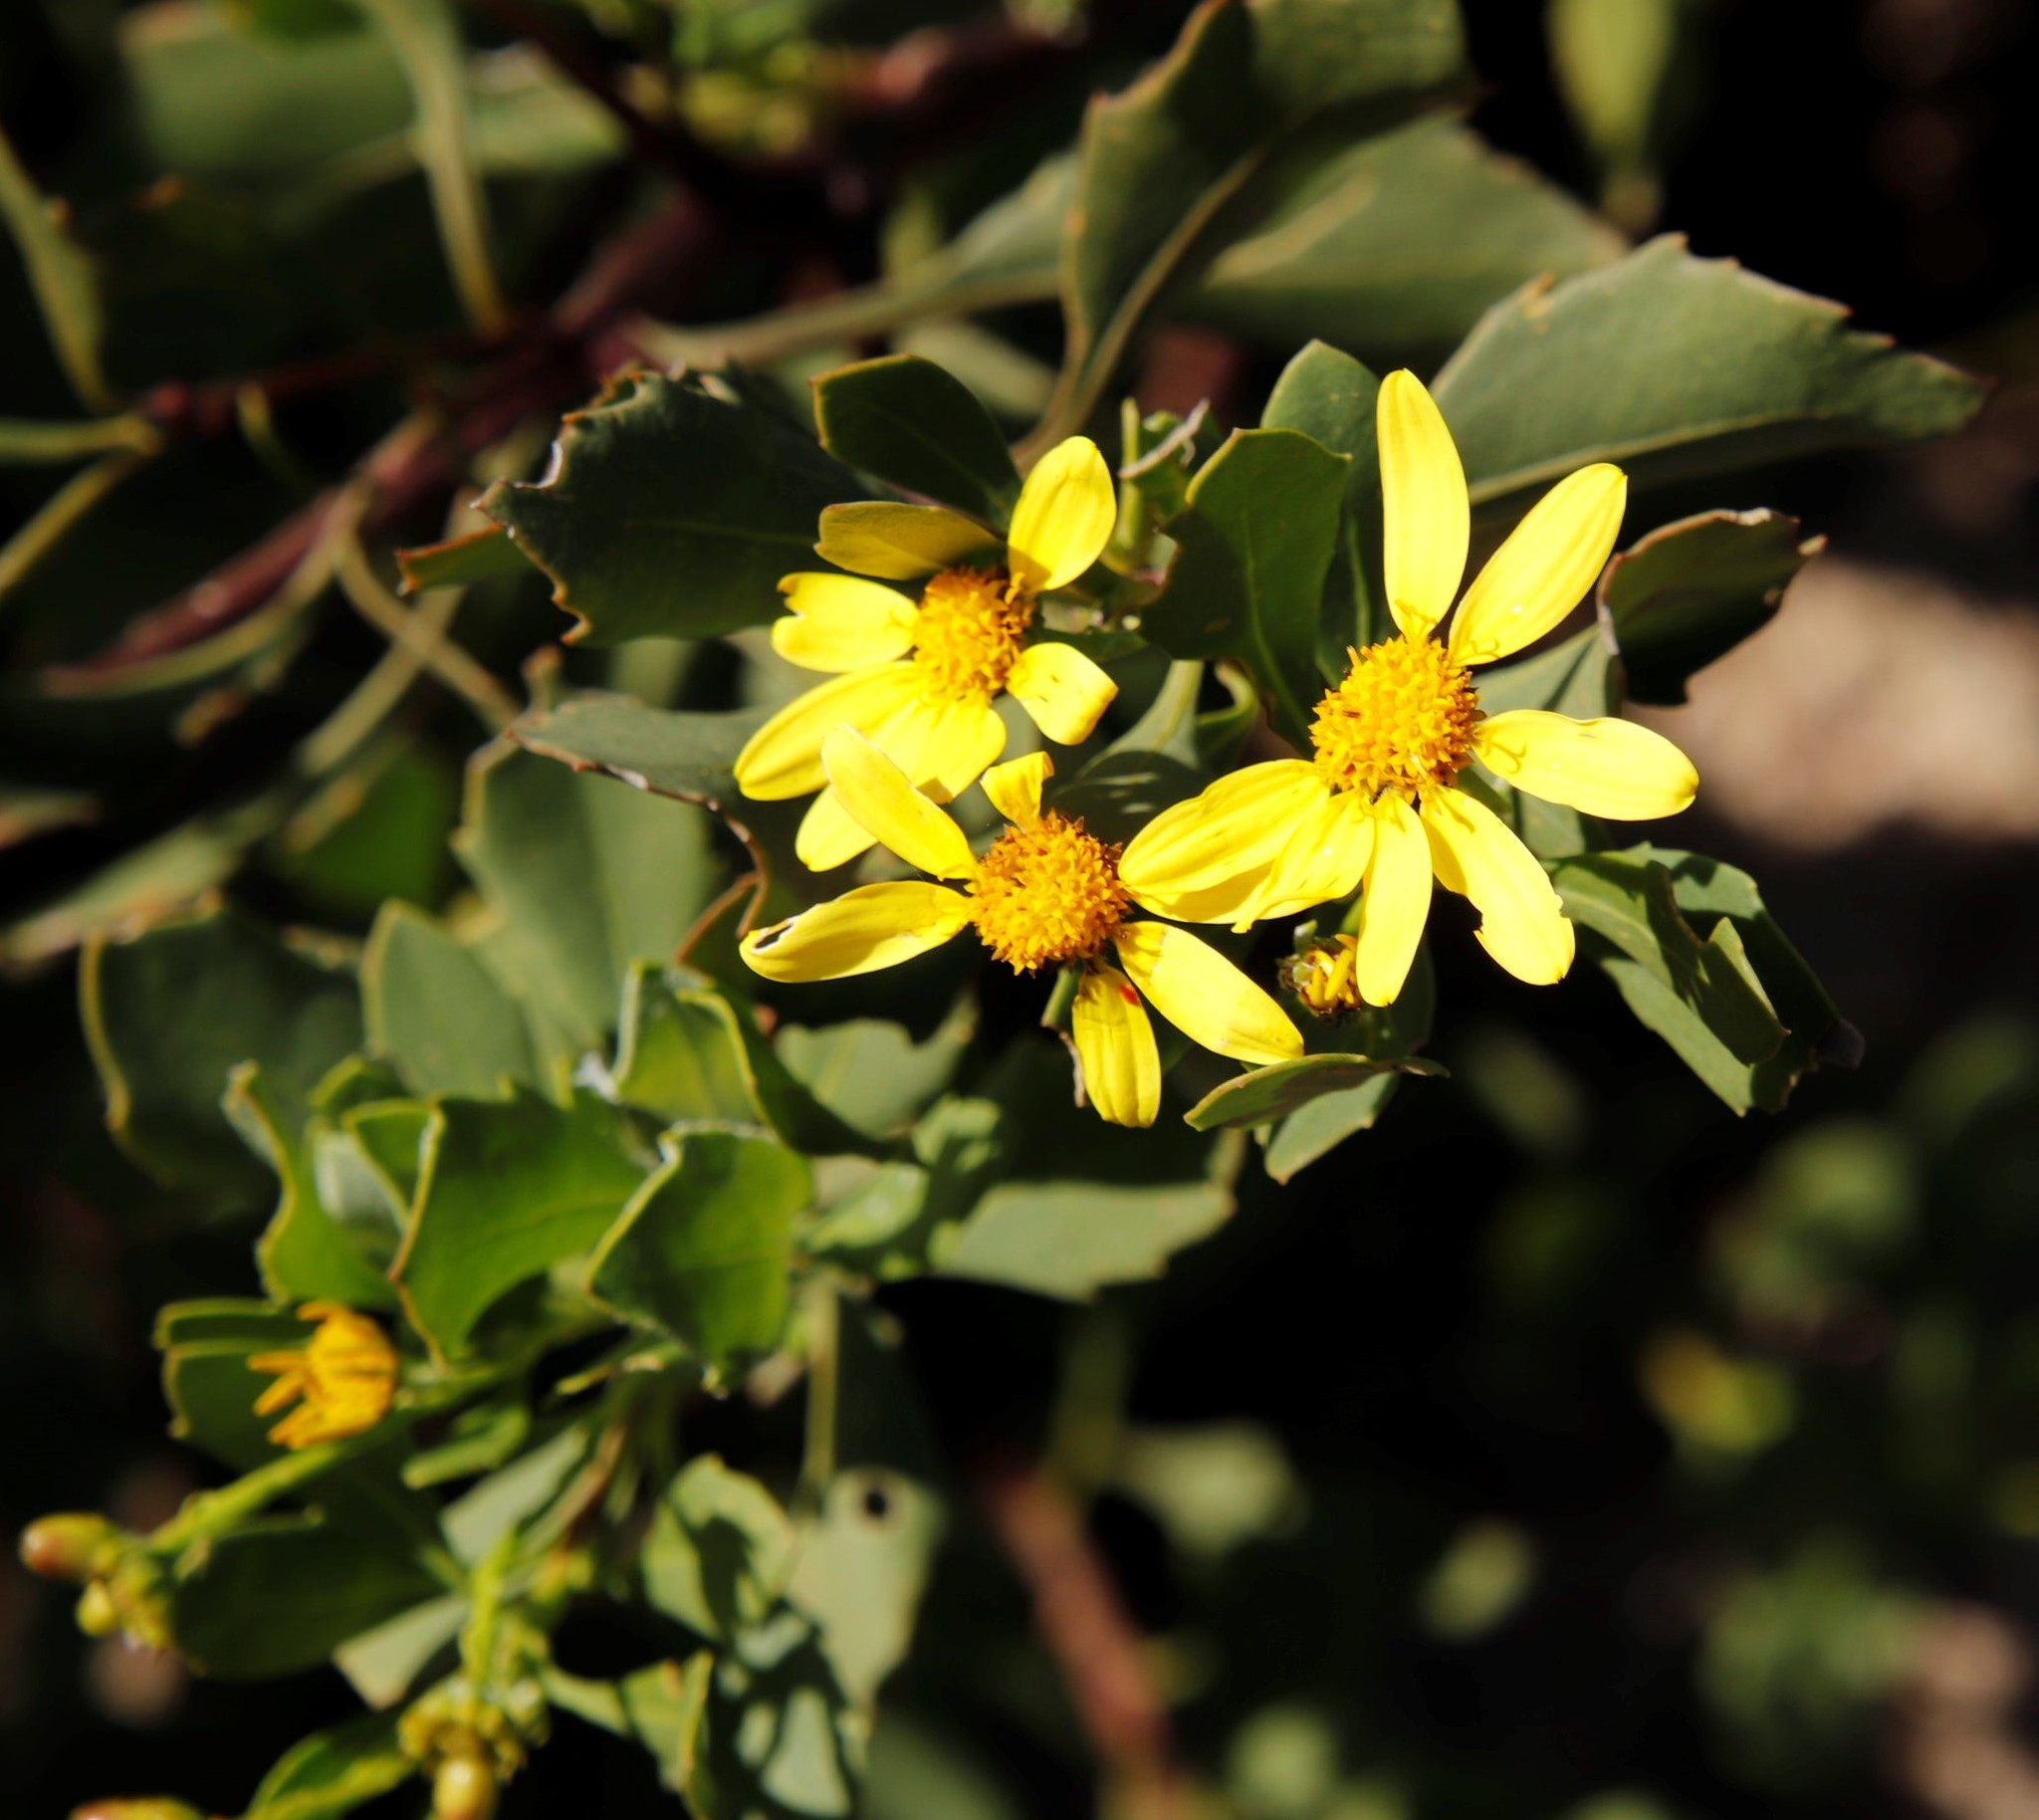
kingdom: Plantae
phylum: Tracheophyta
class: Magnoliopsida
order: Asterales
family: Asteraceae
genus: Osteospermum
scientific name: Osteospermum moniliferum
